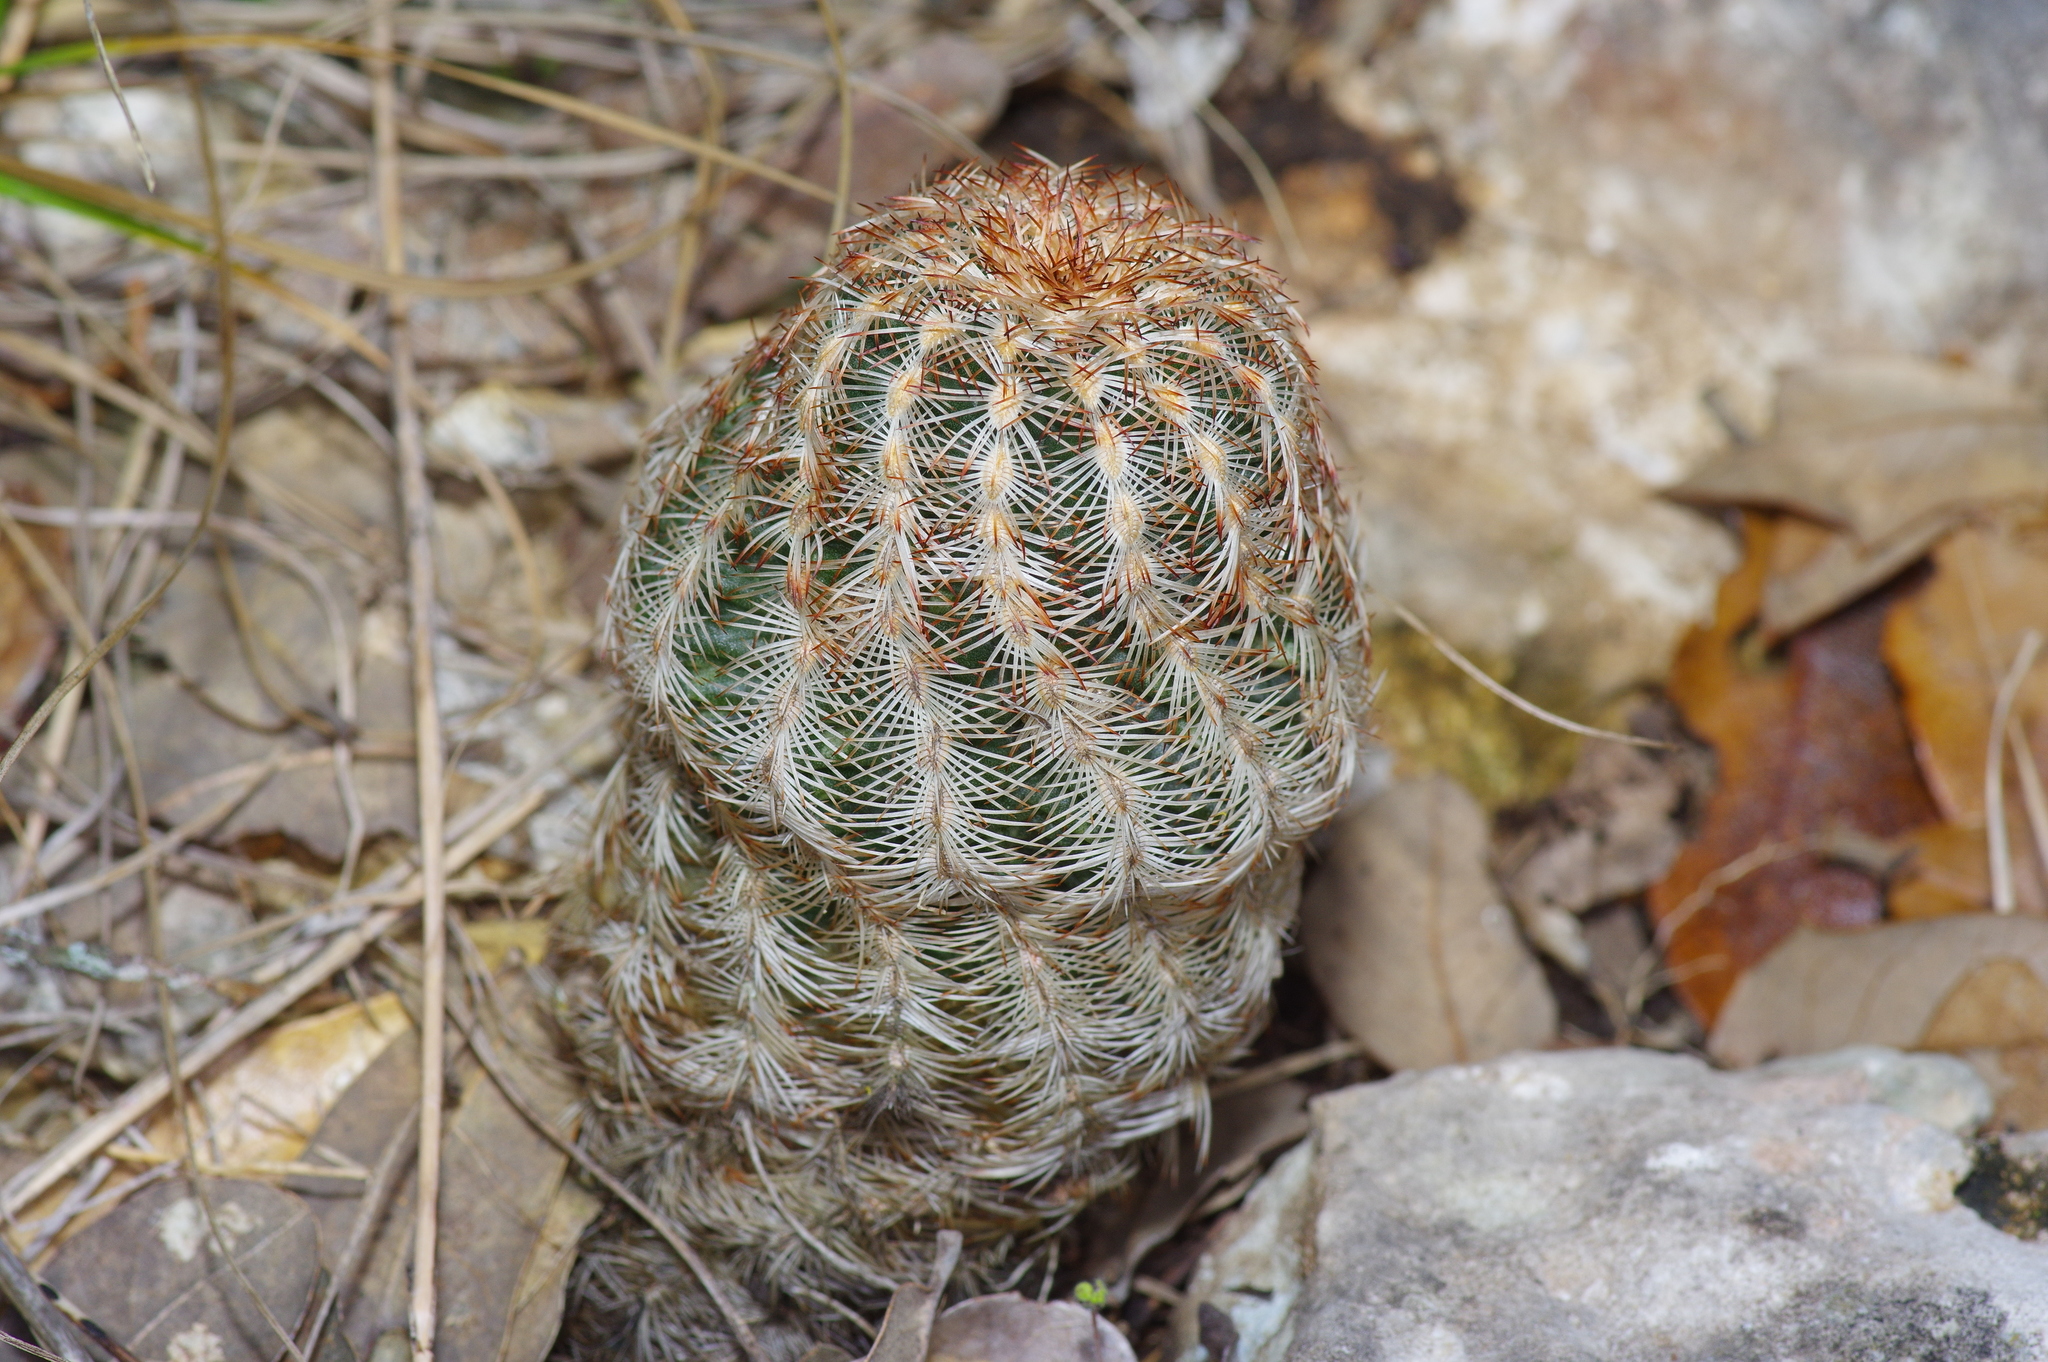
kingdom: Plantae
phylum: Tracheophyta
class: Magnoliopsida
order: Caryophyllales
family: Cactaceae
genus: Echinocereus
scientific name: Echinocereus reichenbachii
